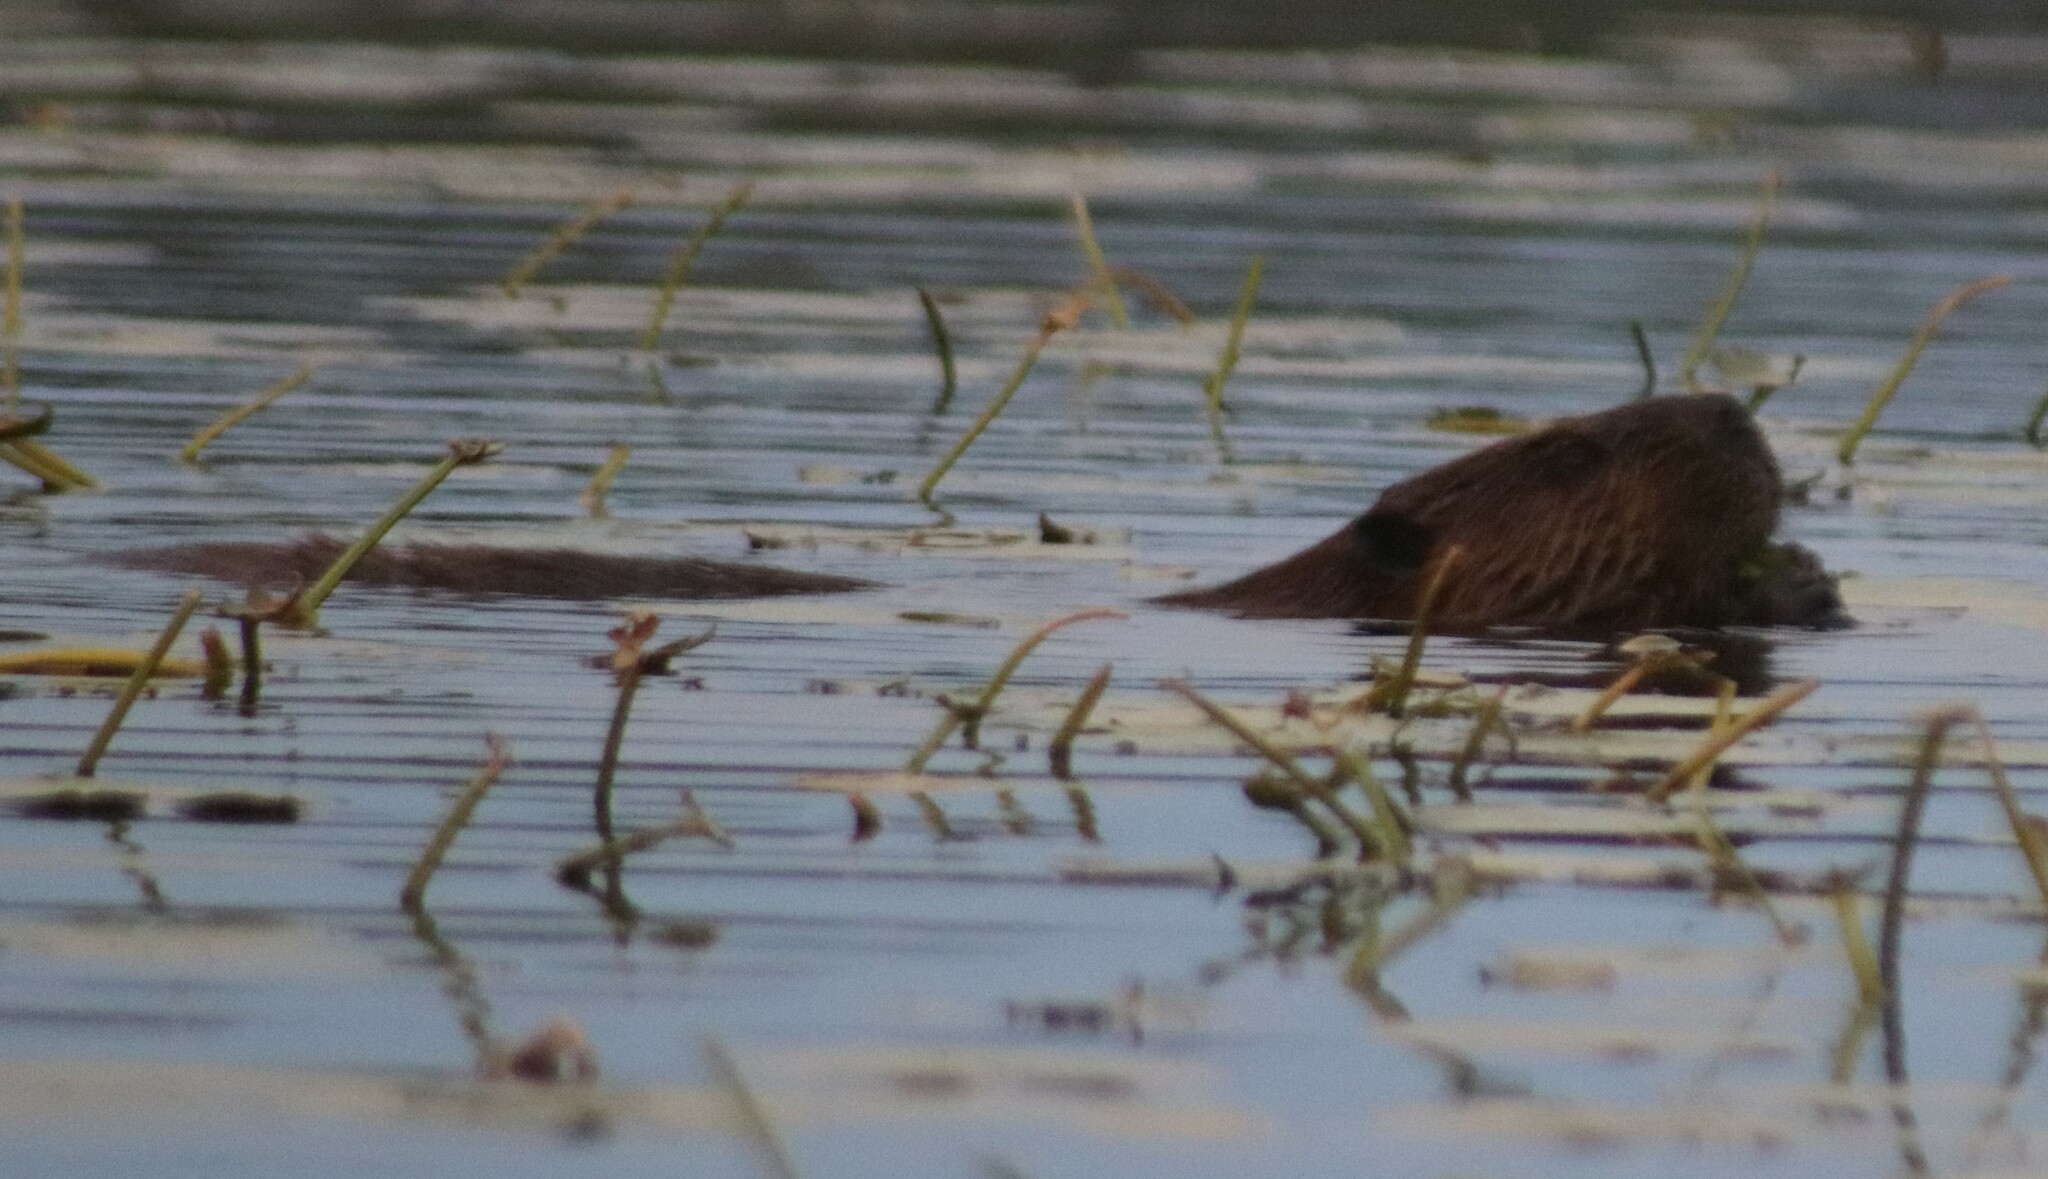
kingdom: Animalia
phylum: Chordata
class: Mammalia
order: Rodentia
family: Castoridae
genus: Castor
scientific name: Castor canadensis
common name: American beaver
